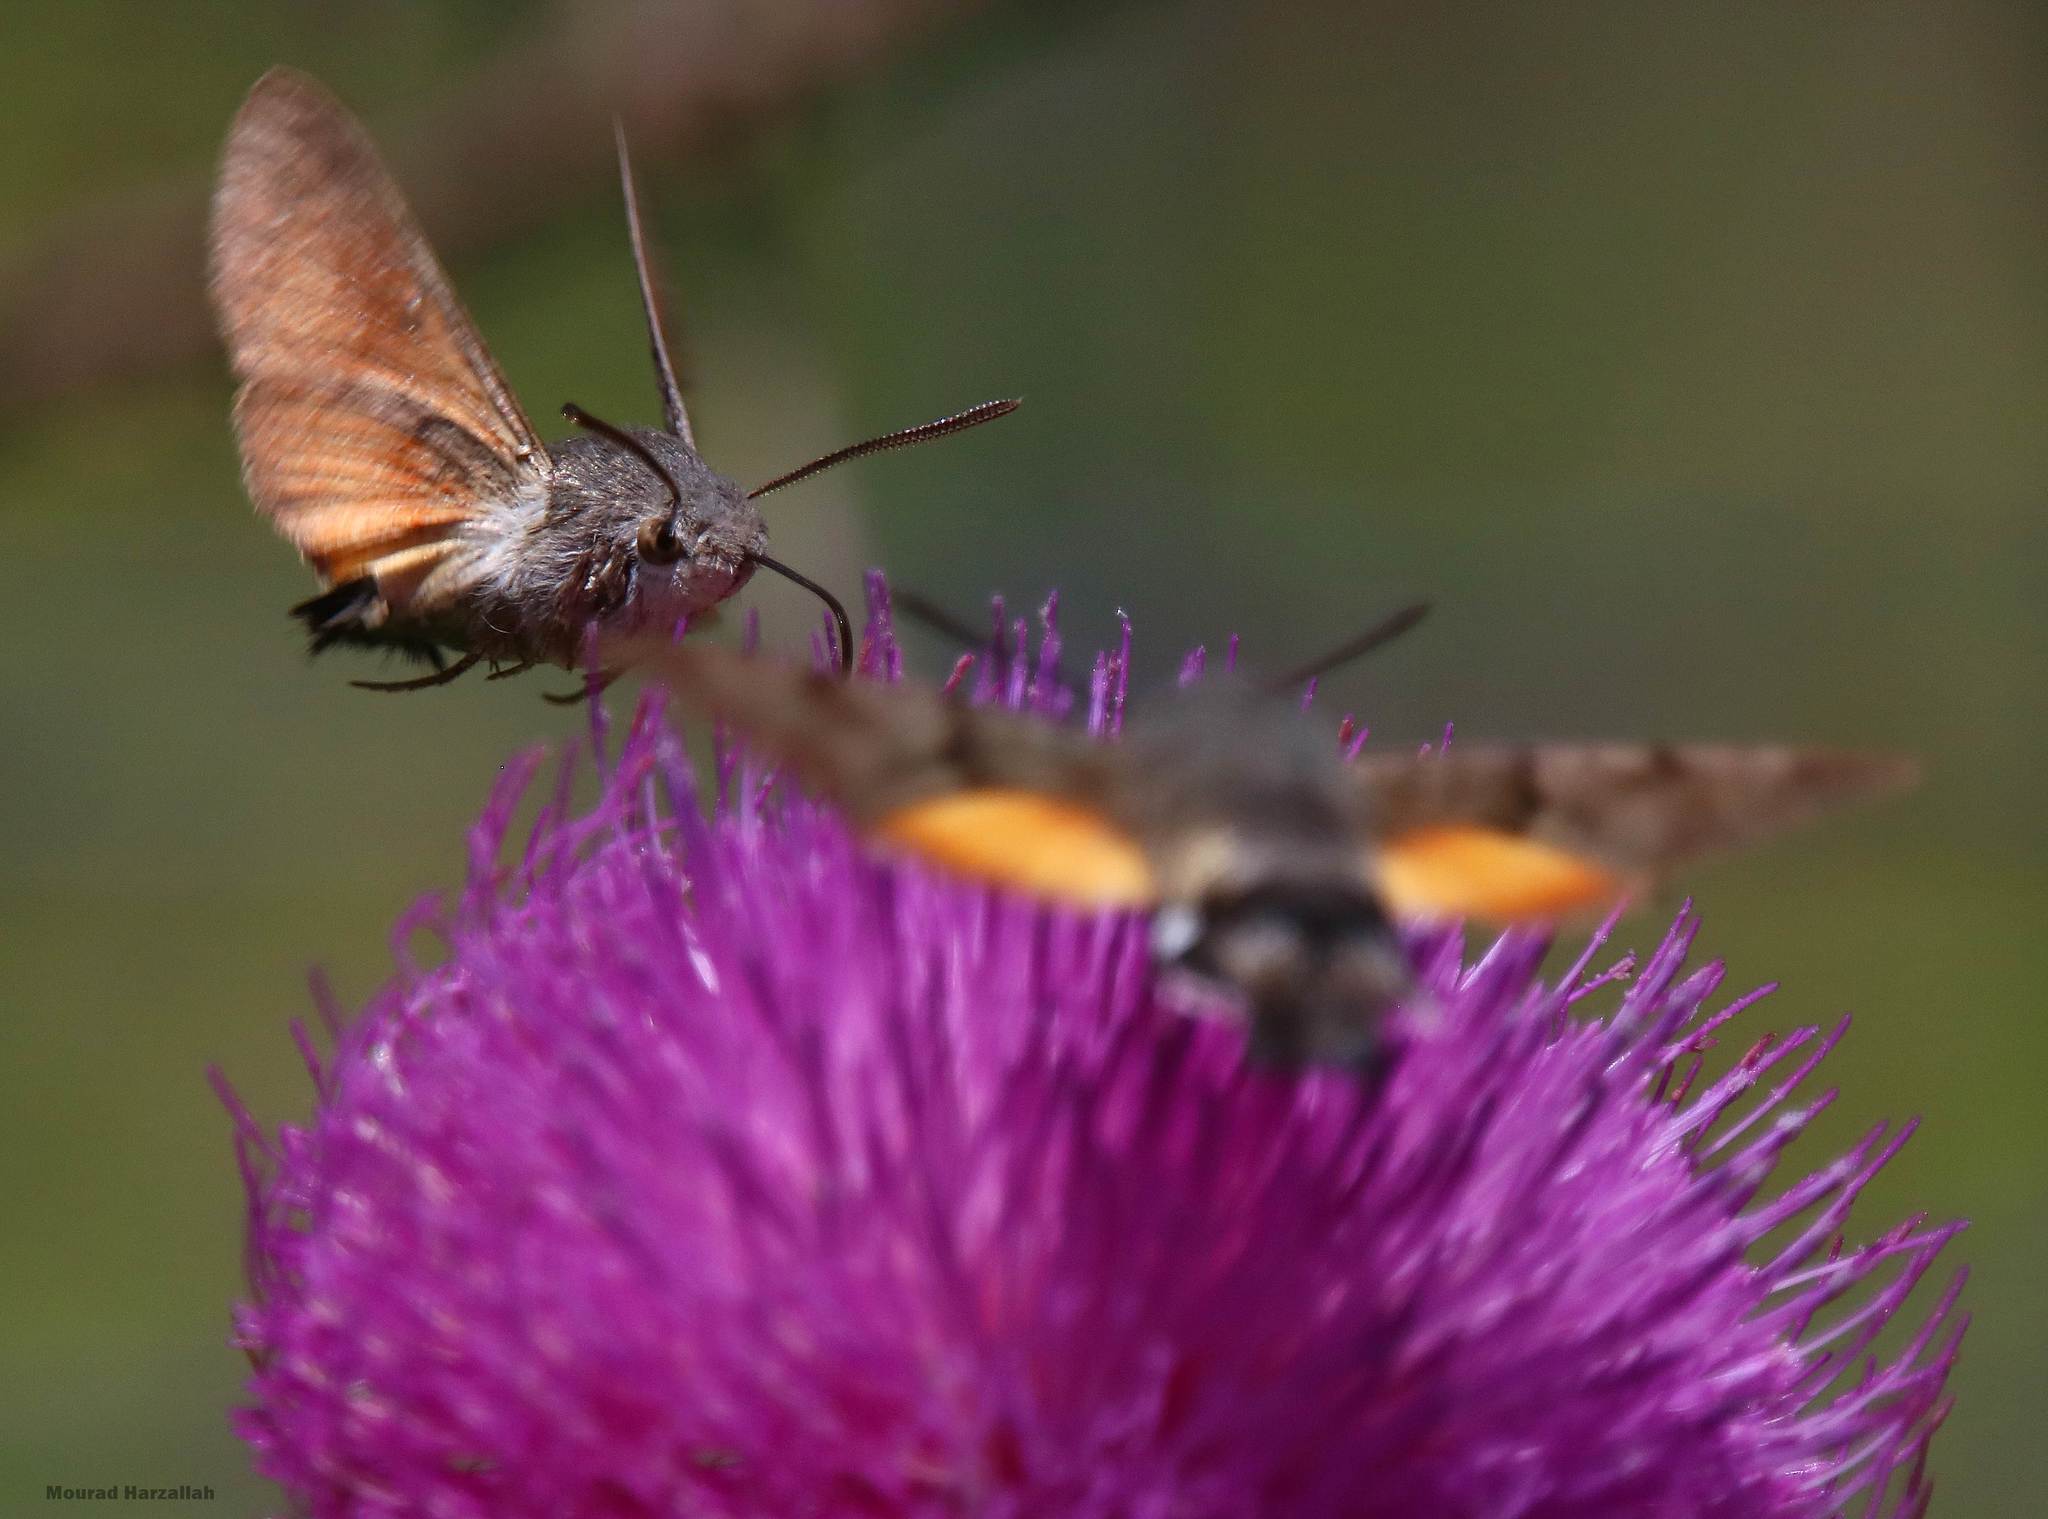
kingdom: Animalia
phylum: Arthropoda
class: Insecta
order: Lepidoptera
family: Sphingidae
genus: Macroglossum
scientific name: Macroglossum stellatarum
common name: Humming-bird hawk-moth
